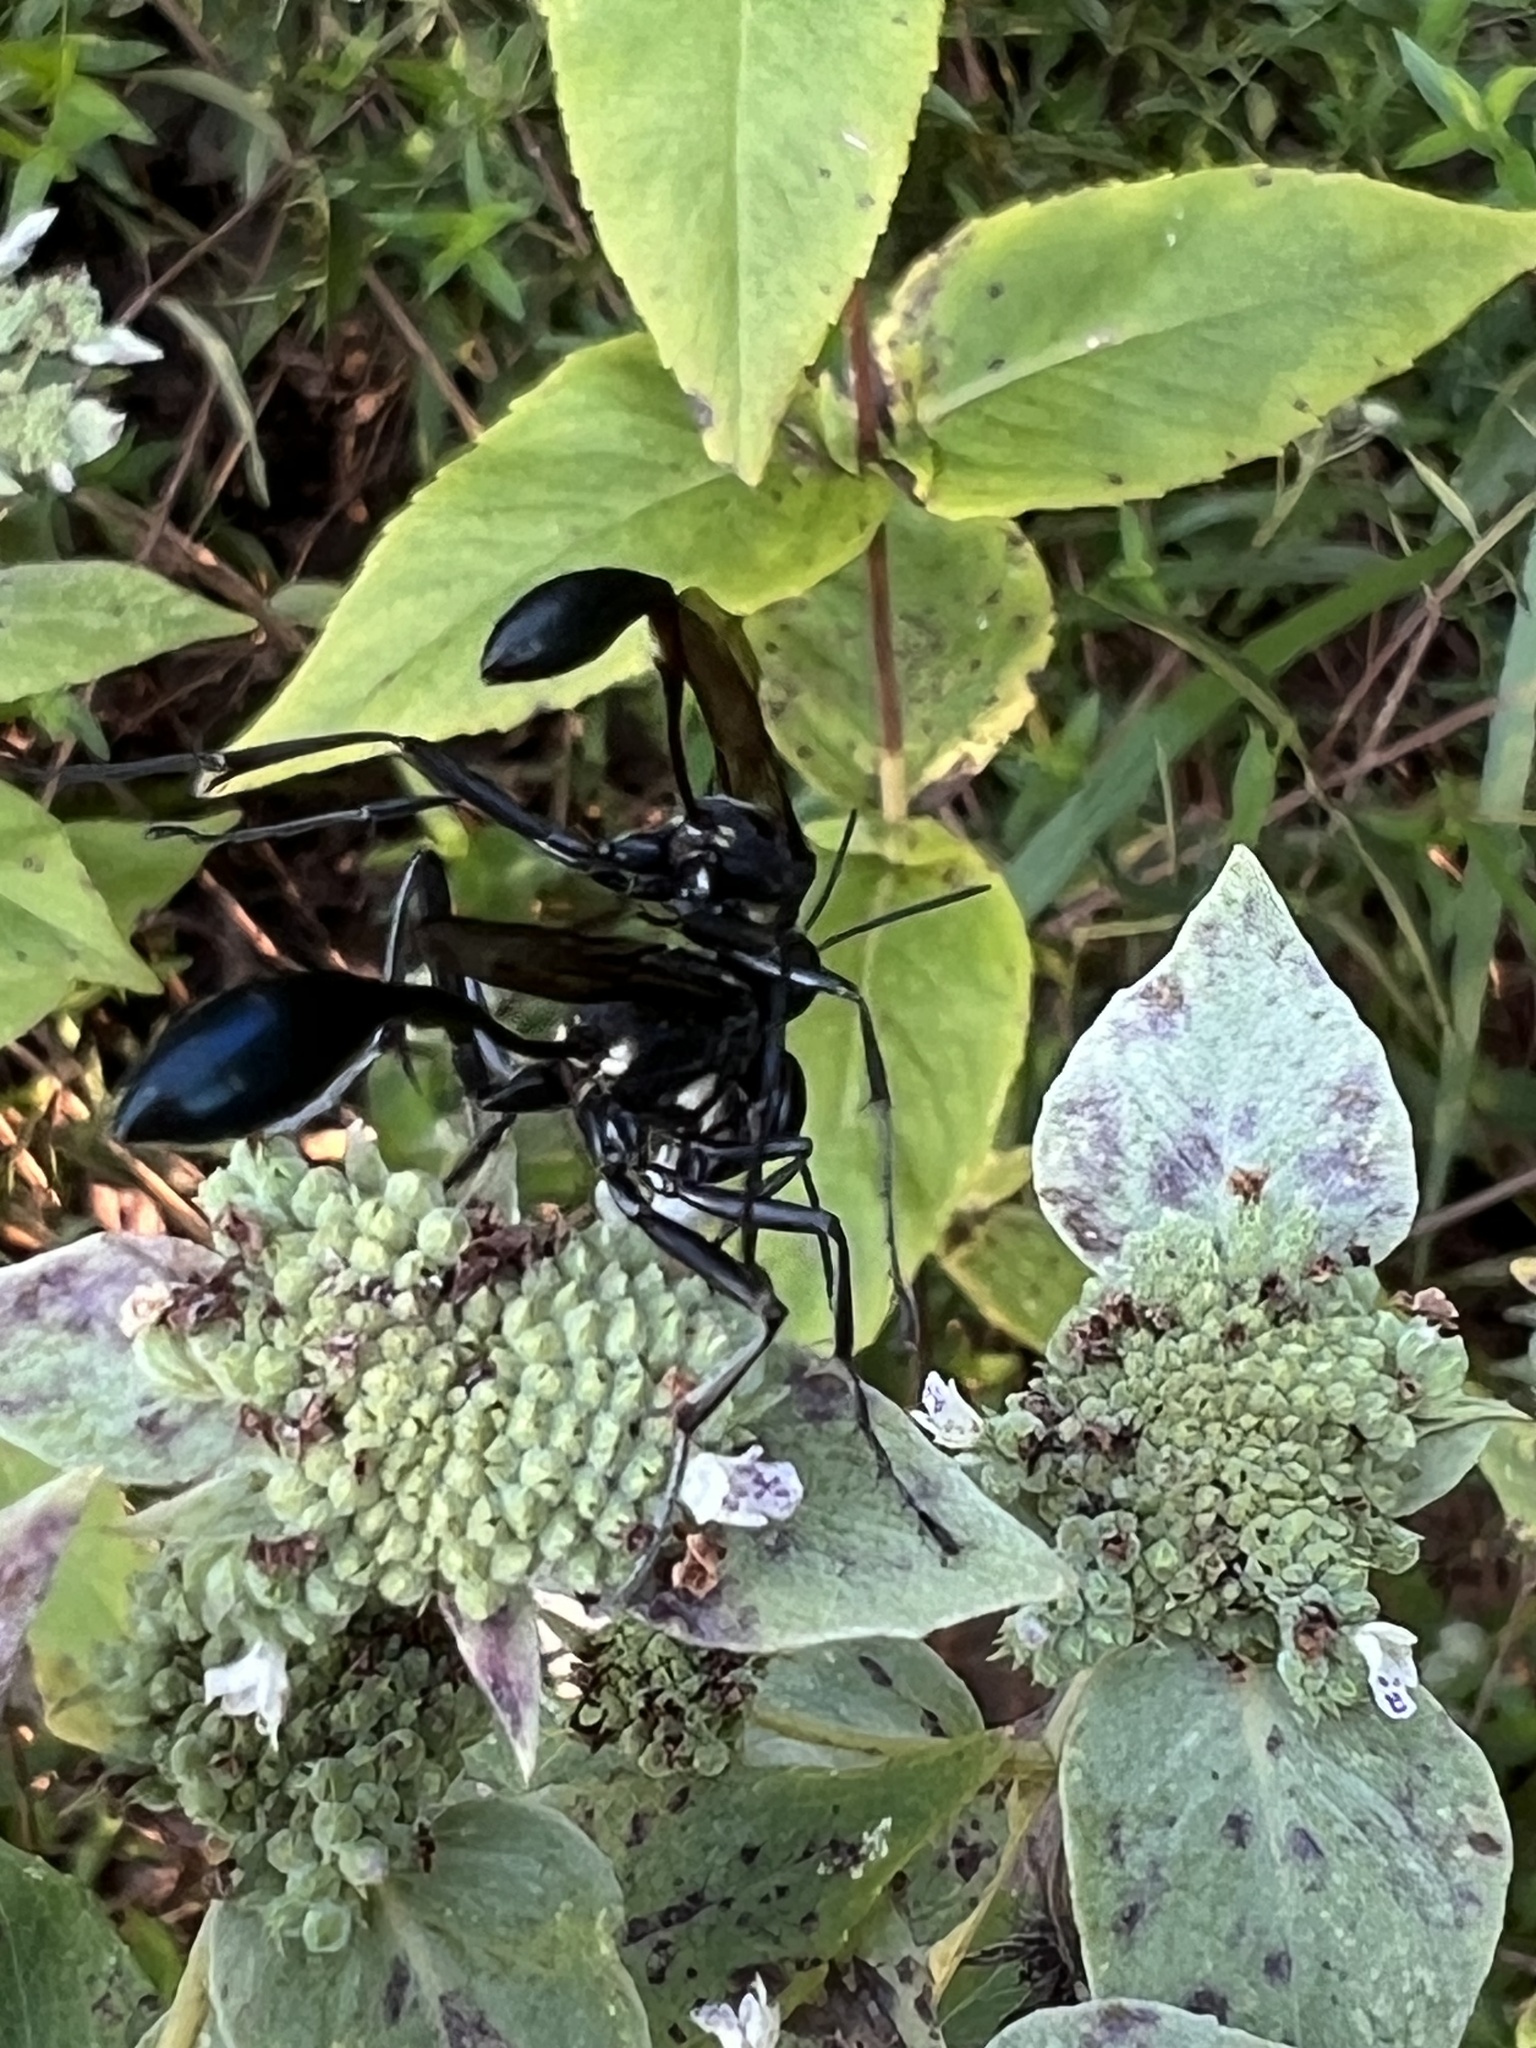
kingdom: Animalia
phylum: Arthropoda
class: Insecta
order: Hymenoptera
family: Sphecidae
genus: Eremnophila
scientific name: Eremnophila aureonotata
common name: Gold-marked thread-waisted wasp
